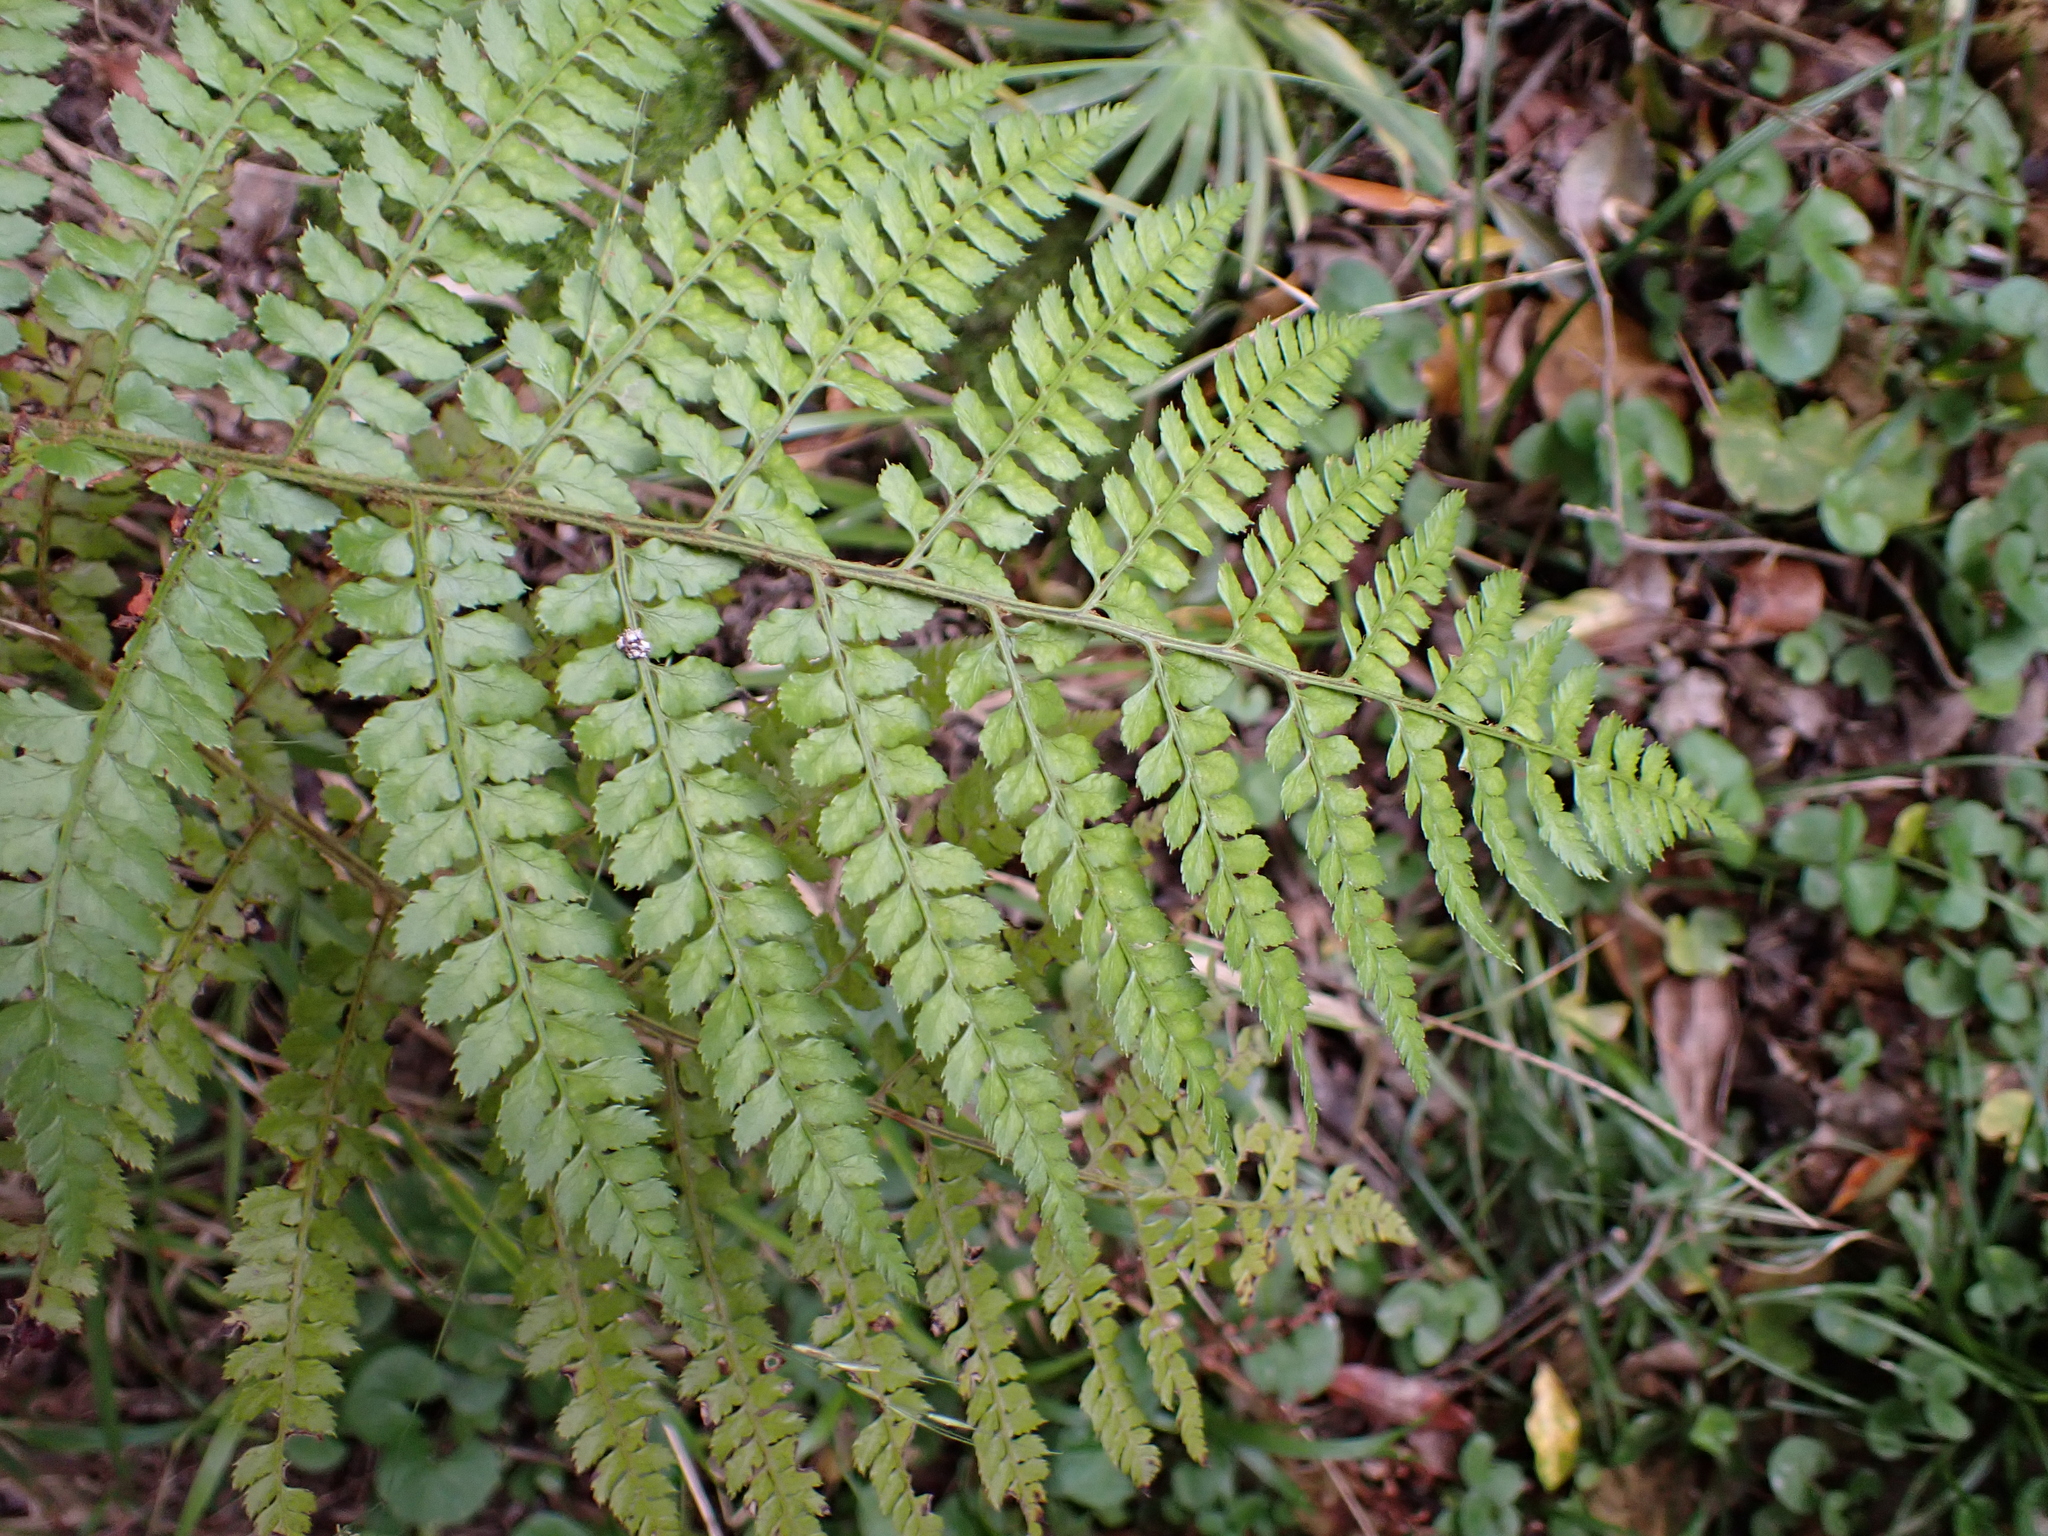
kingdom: Plantae
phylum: Tracheophyta
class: Polypodiopsida
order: Polypodiales
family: Dryopteridaceae
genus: Polystichum
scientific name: Polystichum pungens
